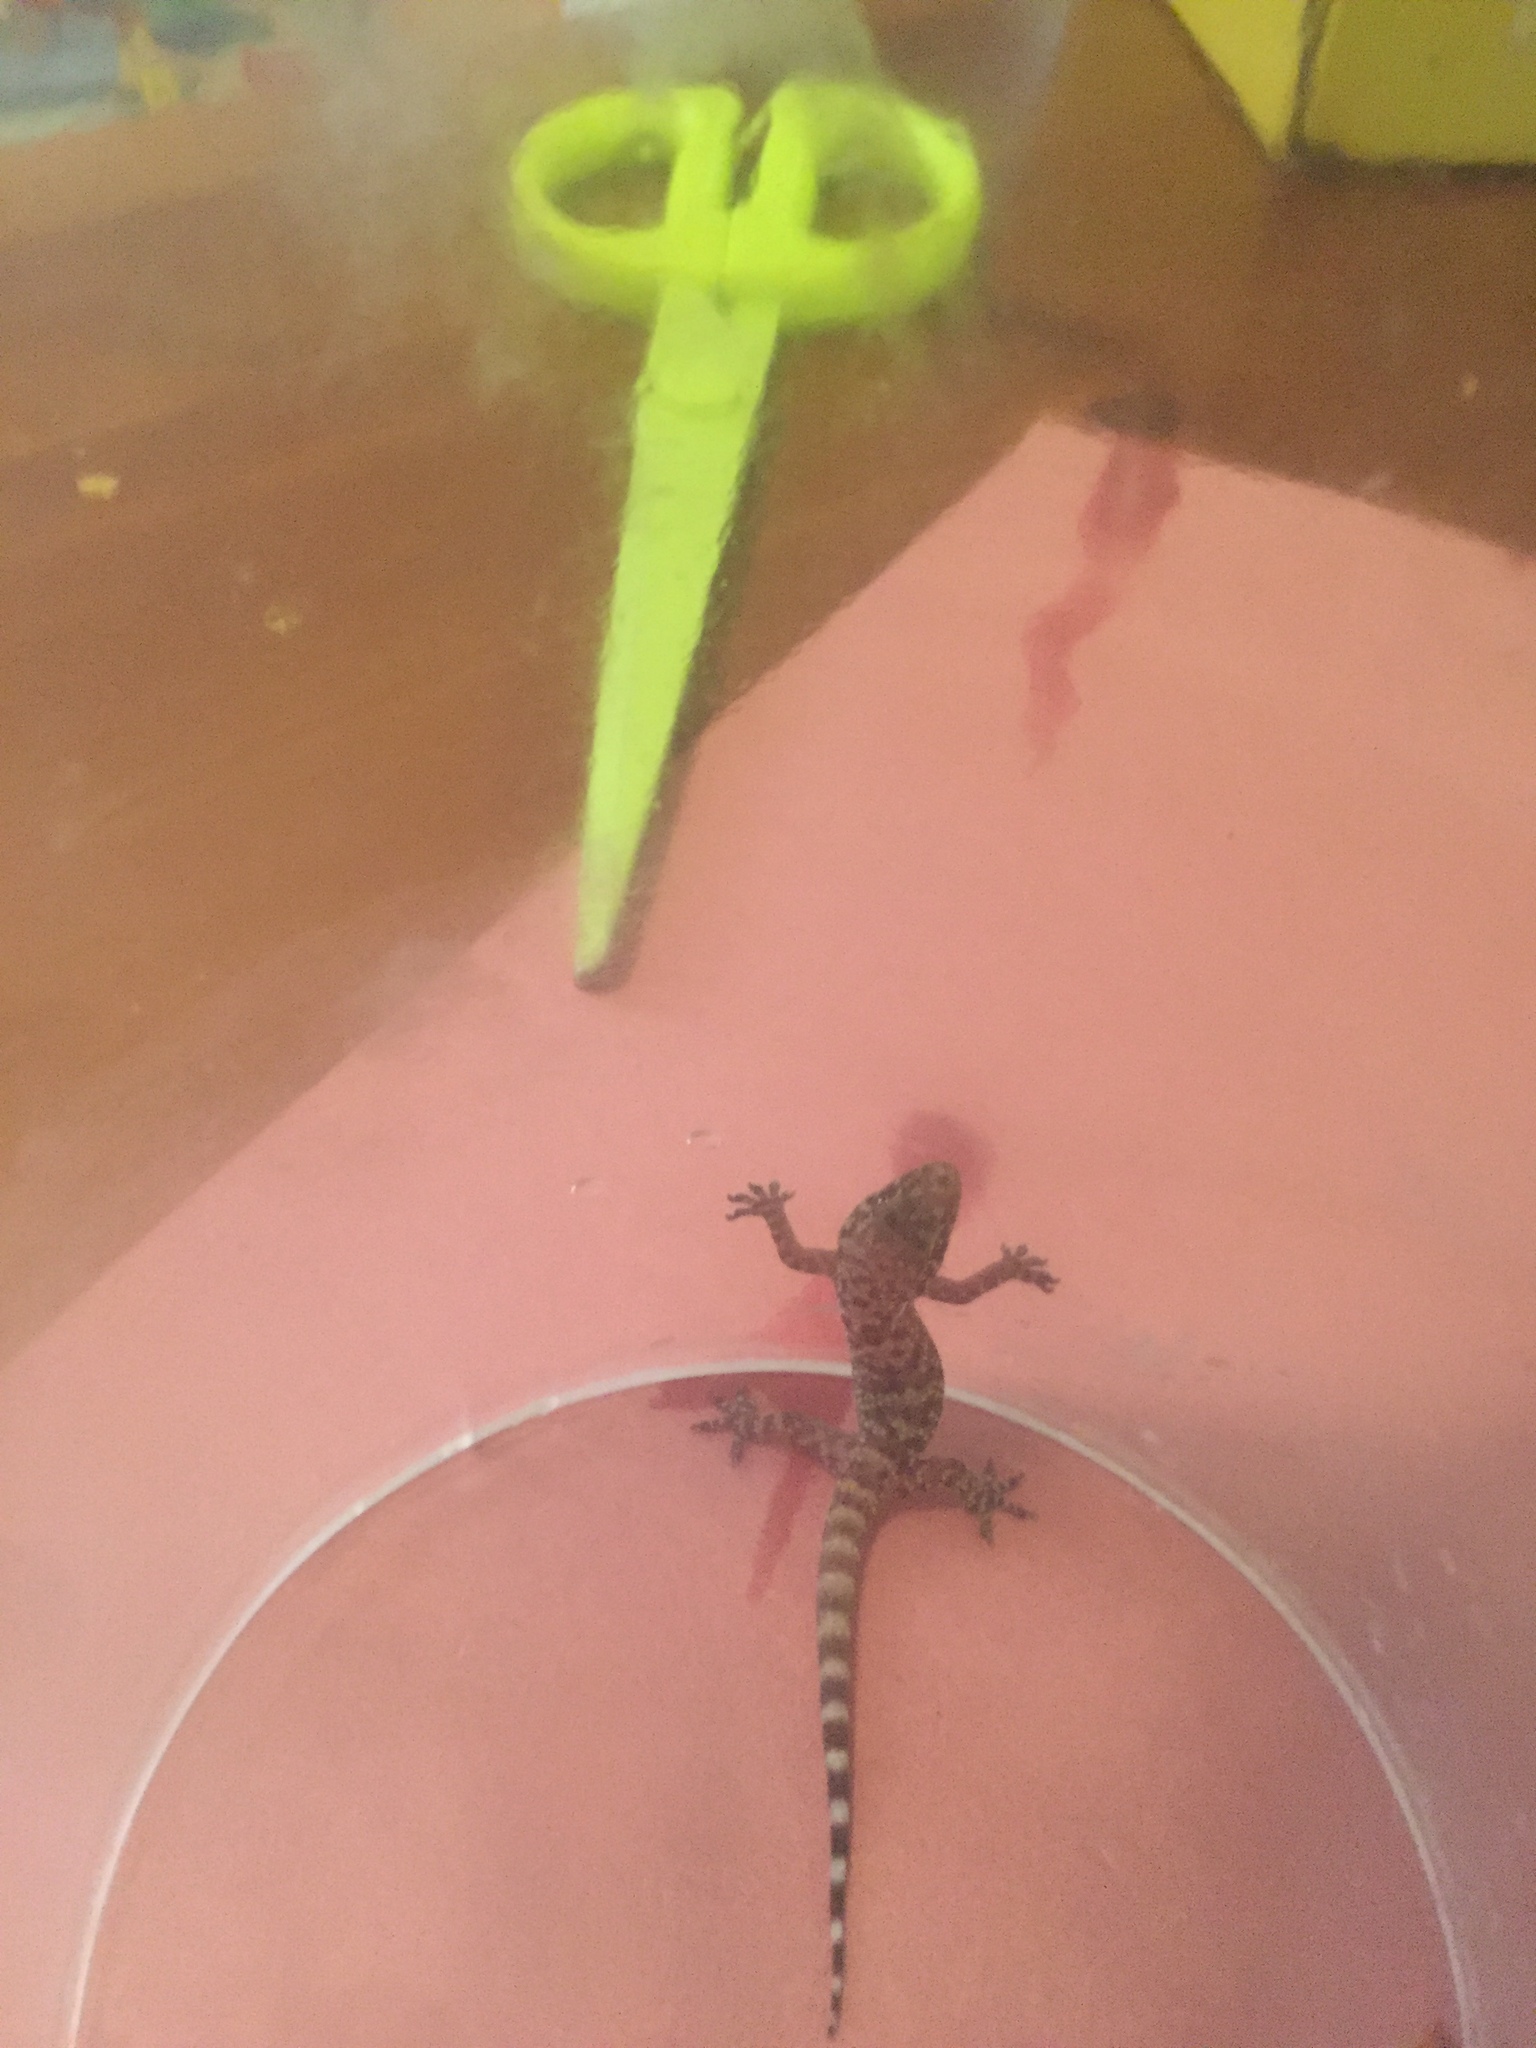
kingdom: Animalia
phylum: Chordata
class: Squamata
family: Gekkonidae
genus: Hemidactylus
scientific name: Hemidactylus turcicus
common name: Turkish gecko
